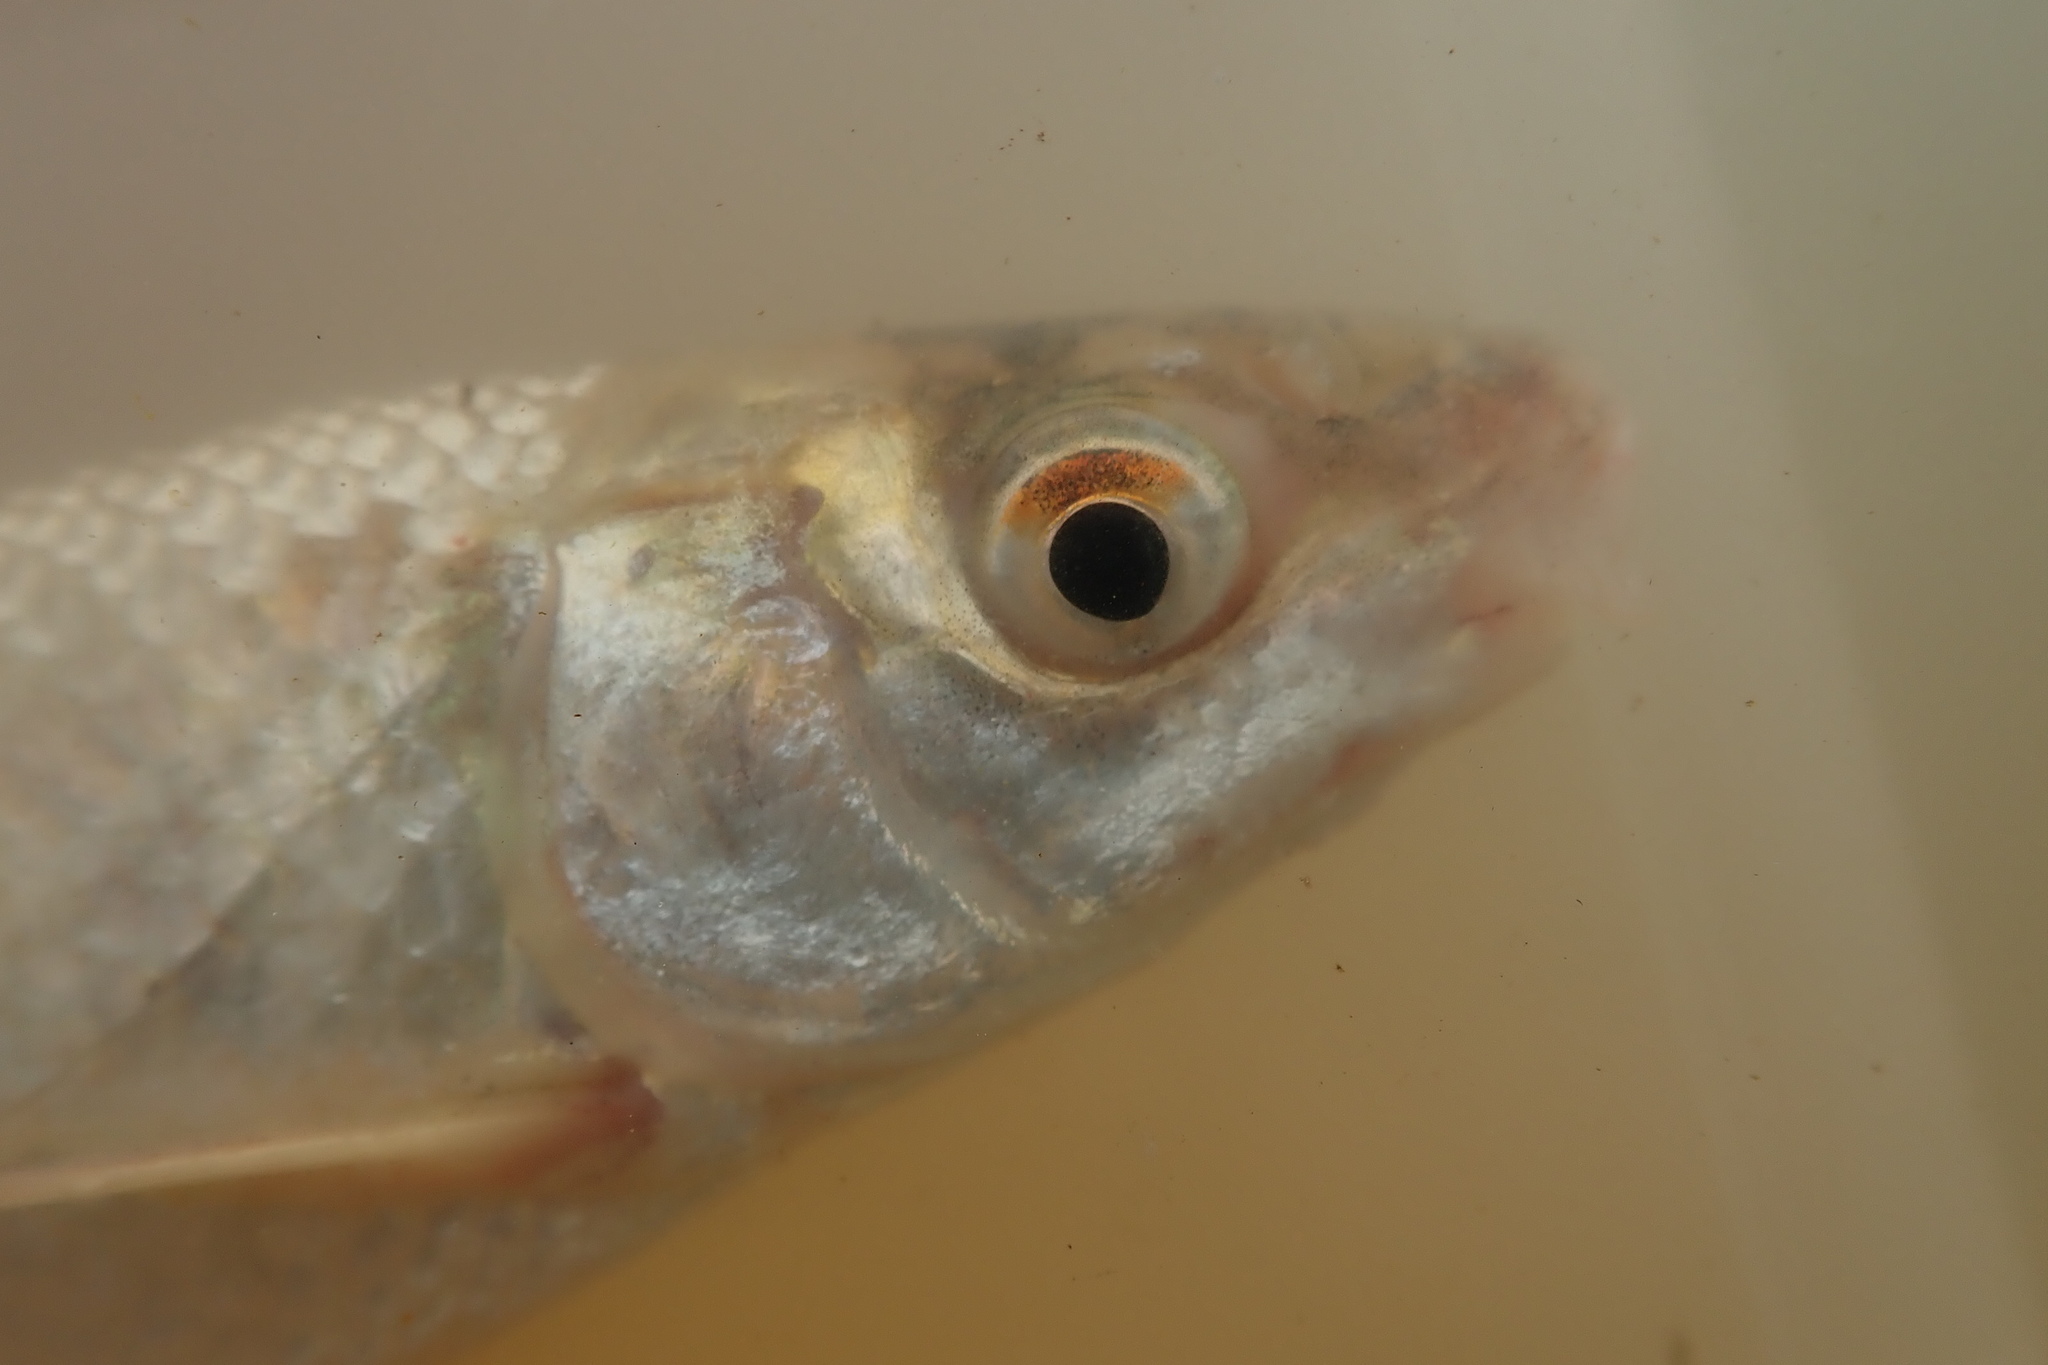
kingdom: Animalia
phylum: Chordata
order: Cypriniformes
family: Cyprinidae
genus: Labeo
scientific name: Labeo ruddi
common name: Silver labeo
